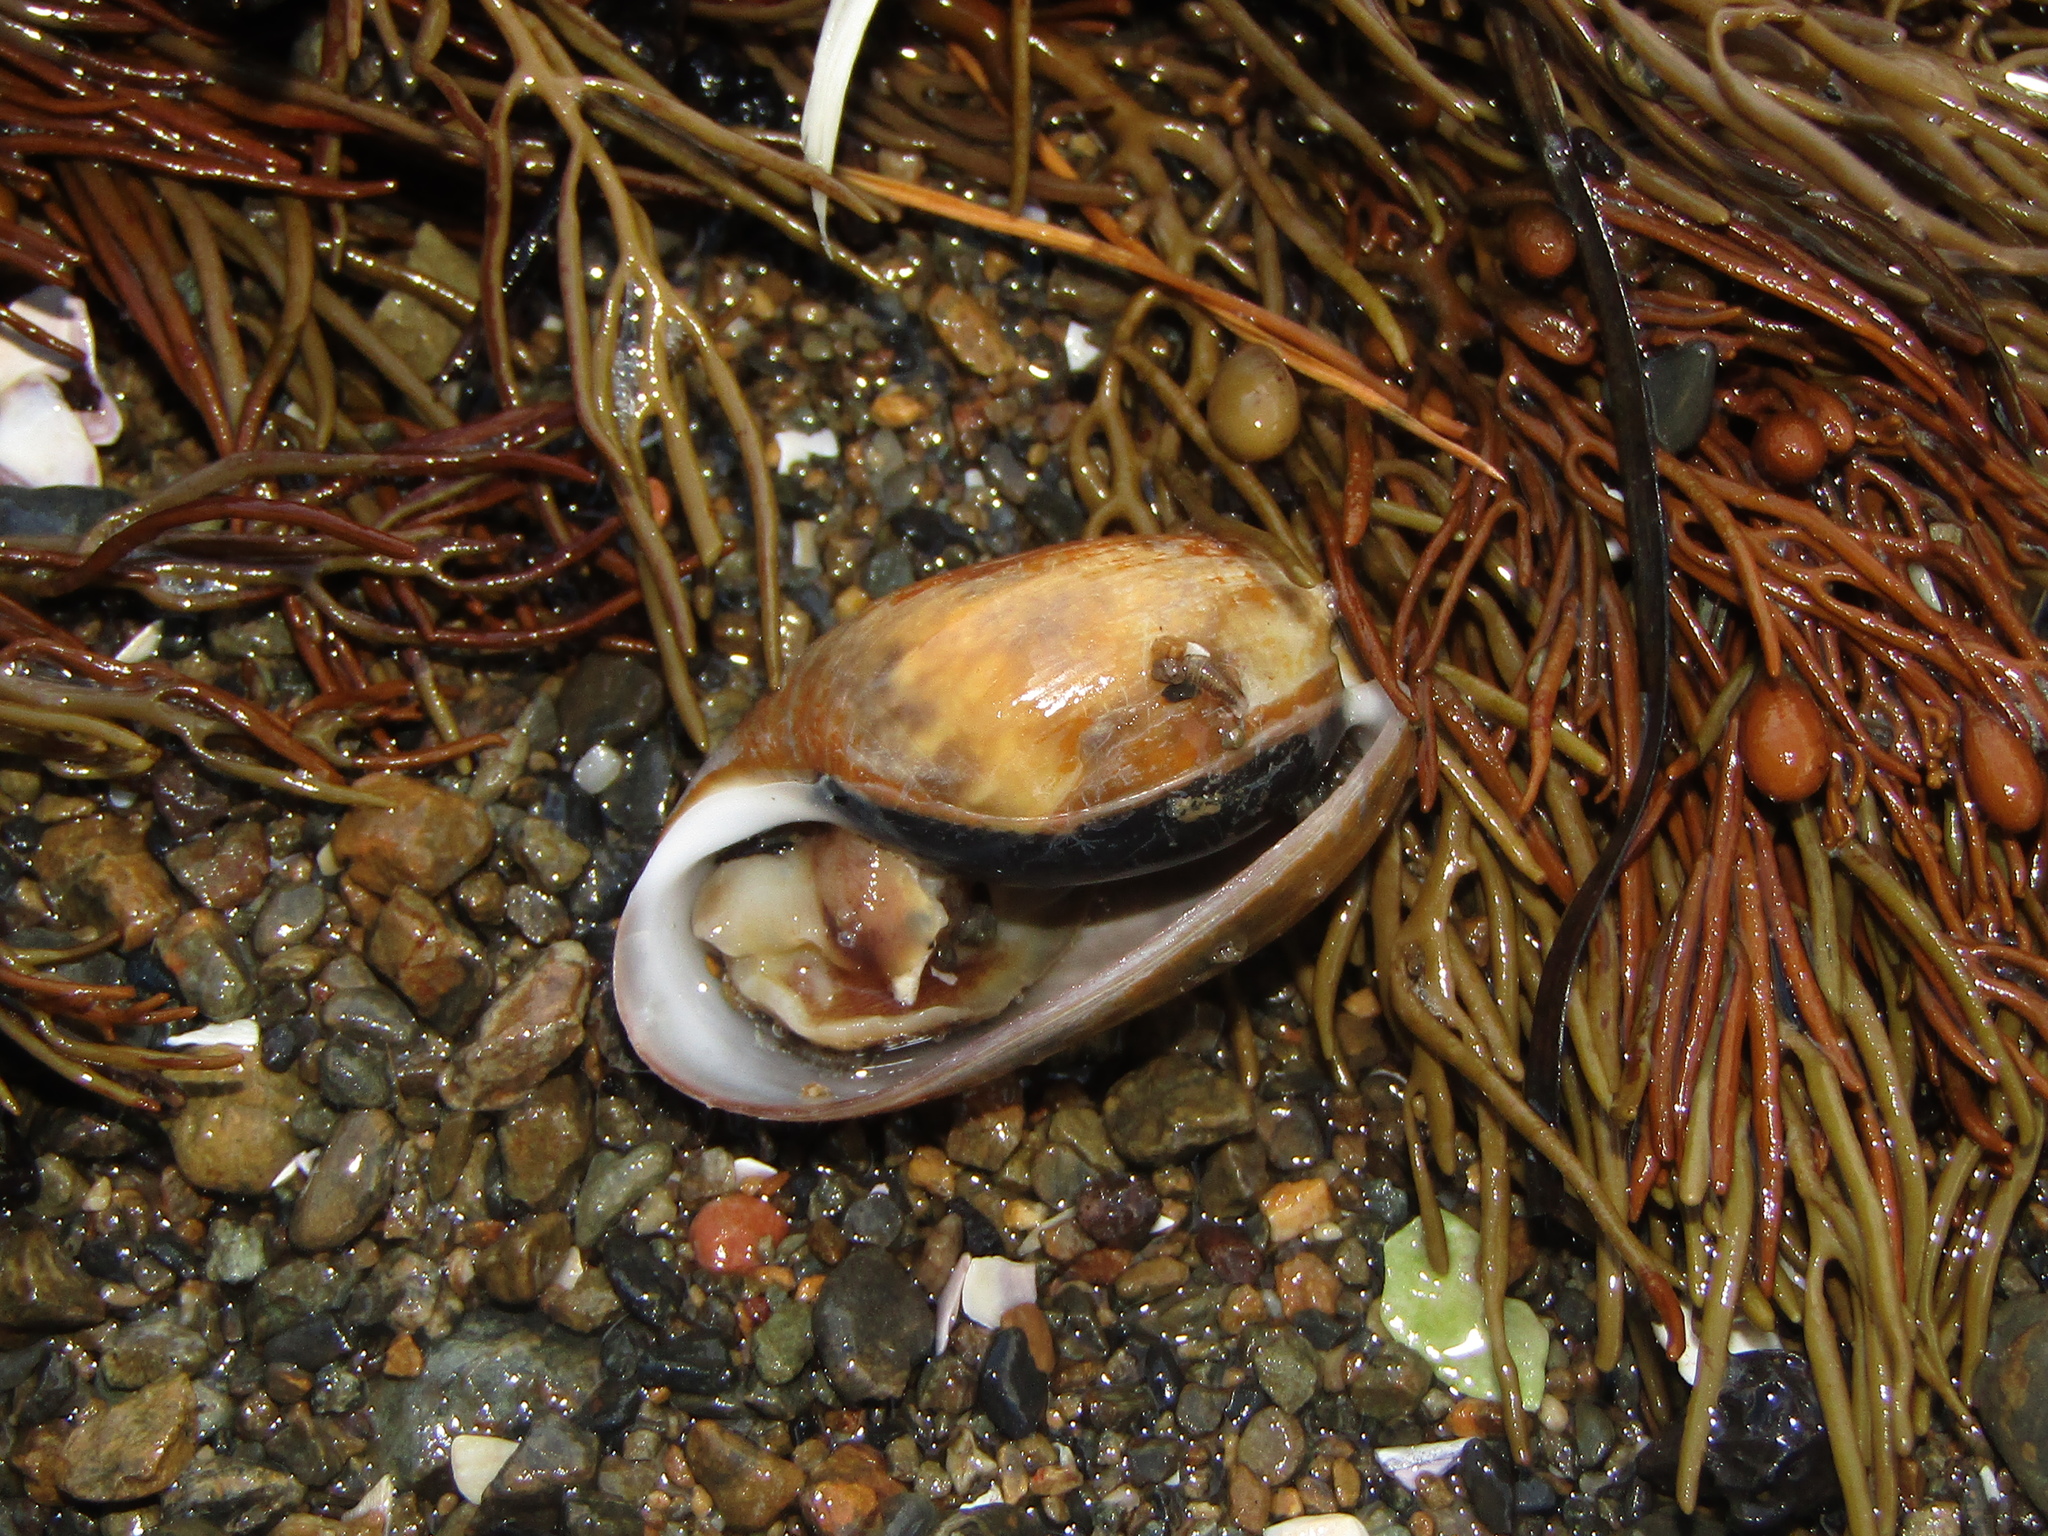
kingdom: Animalia
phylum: Mollusca
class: Gastropoda
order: Cephalaspidea
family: Bullidae
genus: Bulla
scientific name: Bulla quoyii
